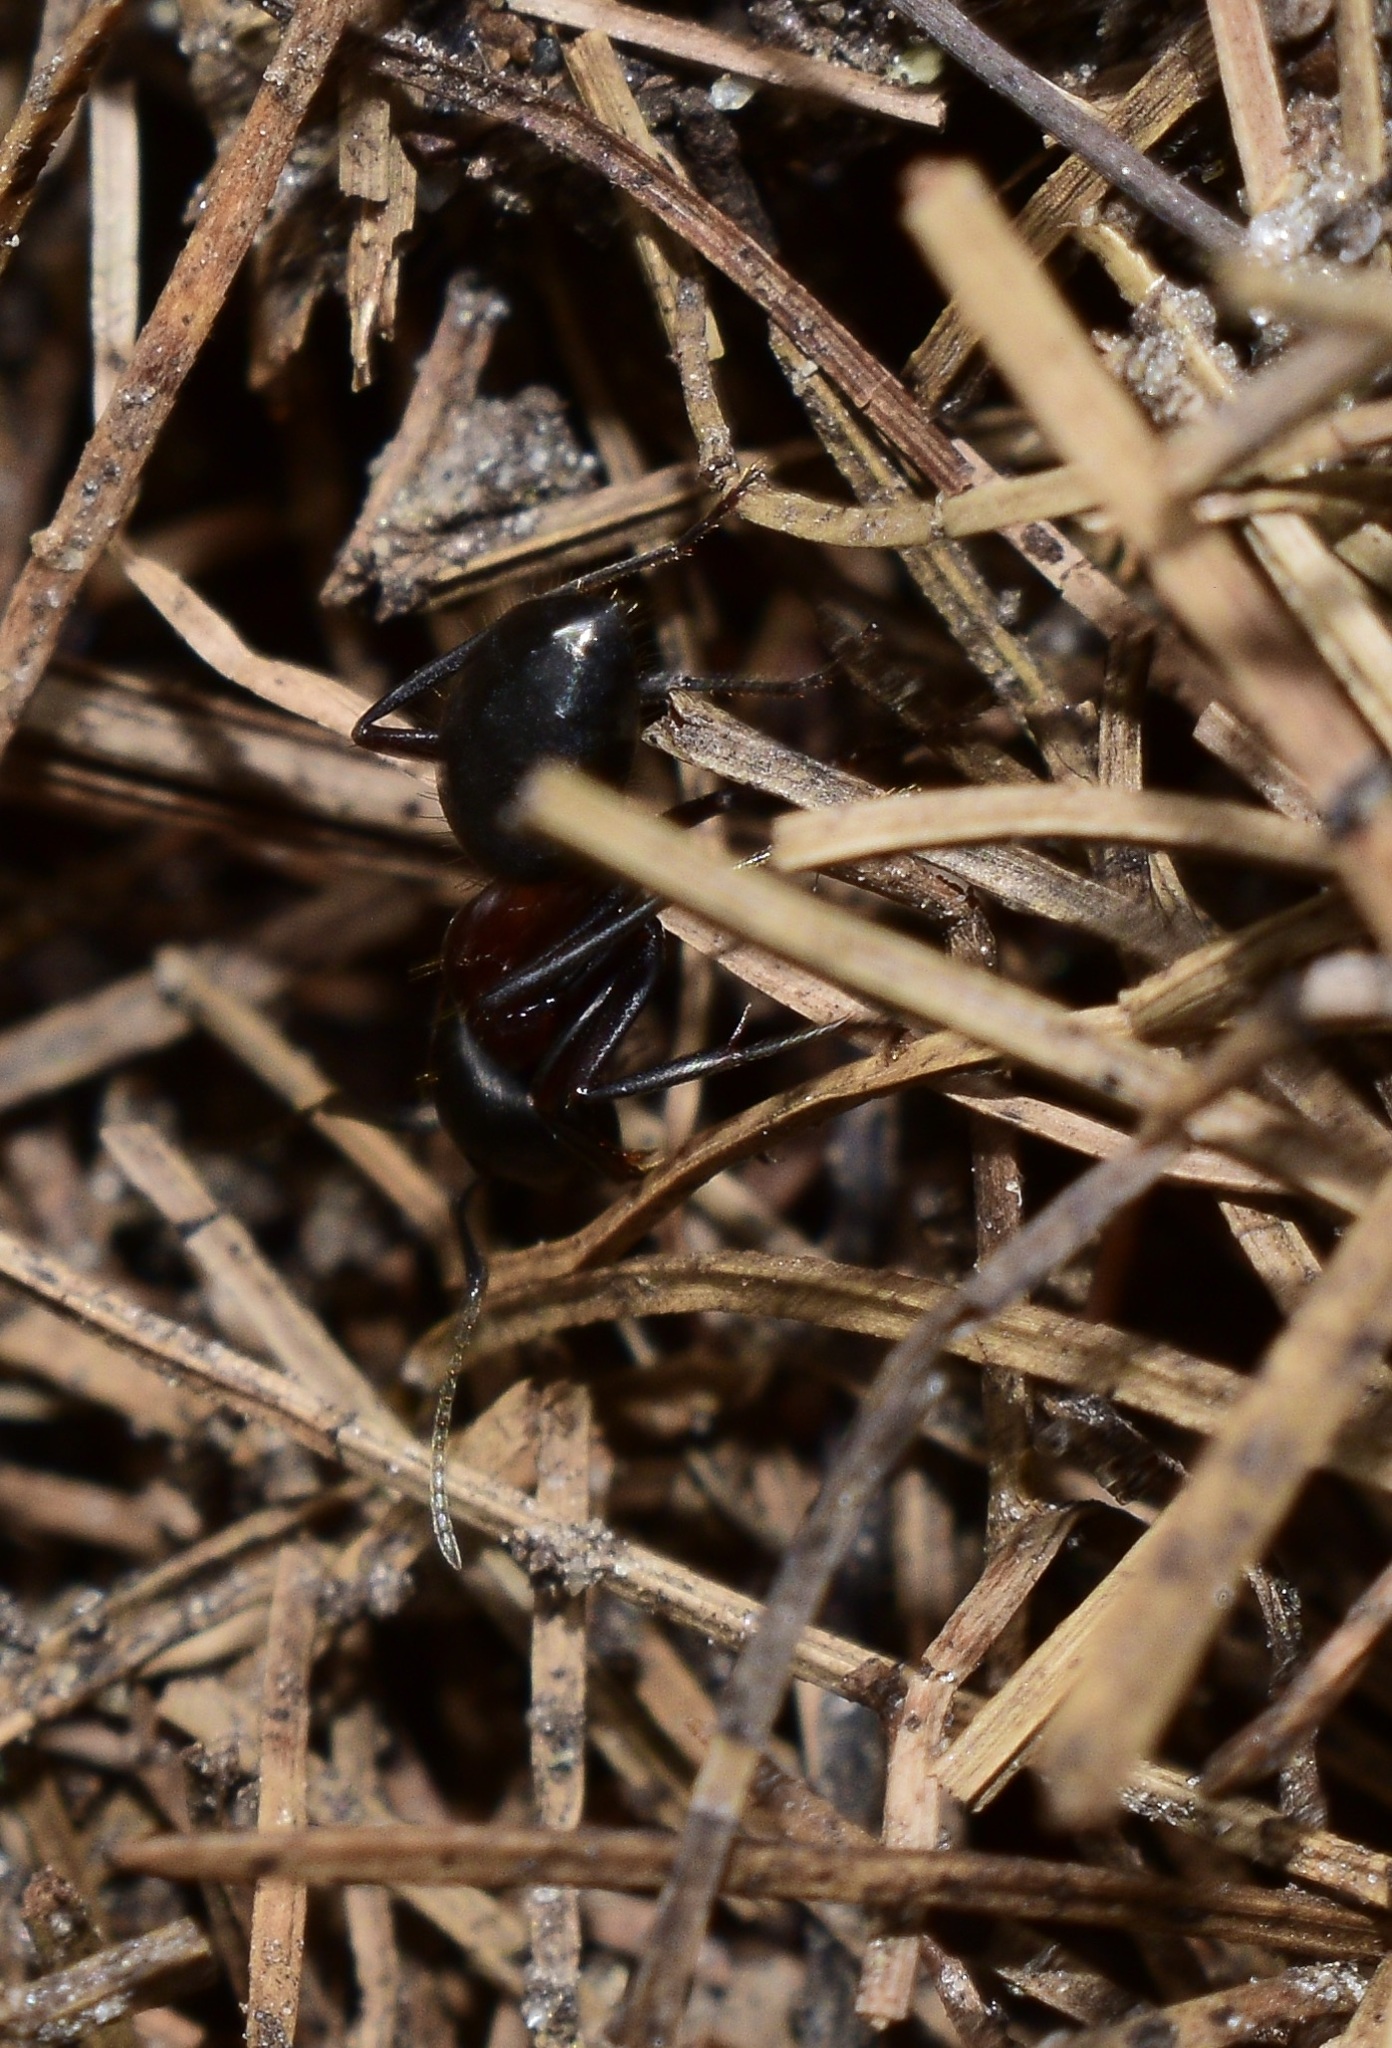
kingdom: Animalia
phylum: Arthropoda
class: Insecta
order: Hymenoptera
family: Formicidae
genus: Camponotus
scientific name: Camponotus novaeboracensis
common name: New york carpenter ant
